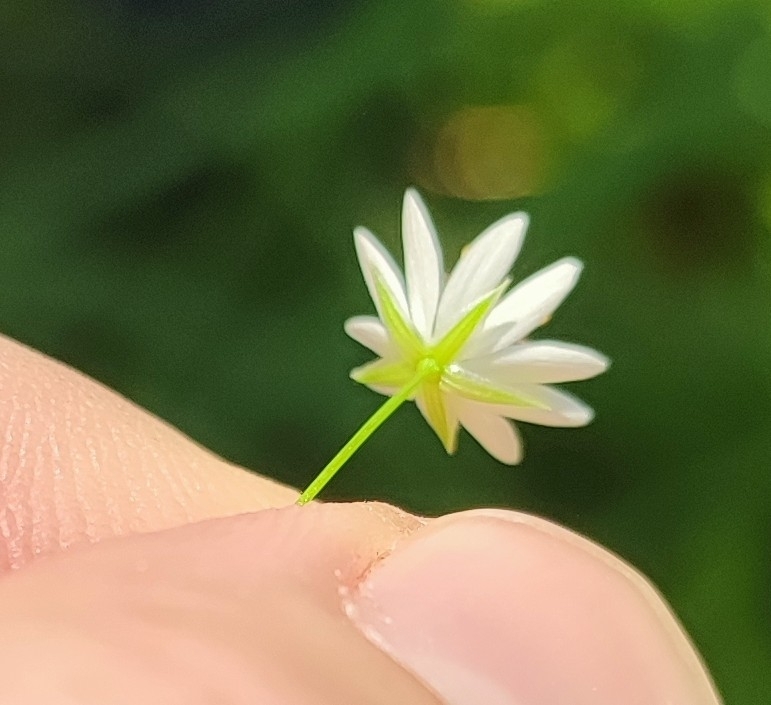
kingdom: Plantae
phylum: Tracheophyta
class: Magnoliopsida
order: Caryophyllales
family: Caryophyllaceae
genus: Stellaria
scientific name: Stellaria graminea
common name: Grass-like starwort
